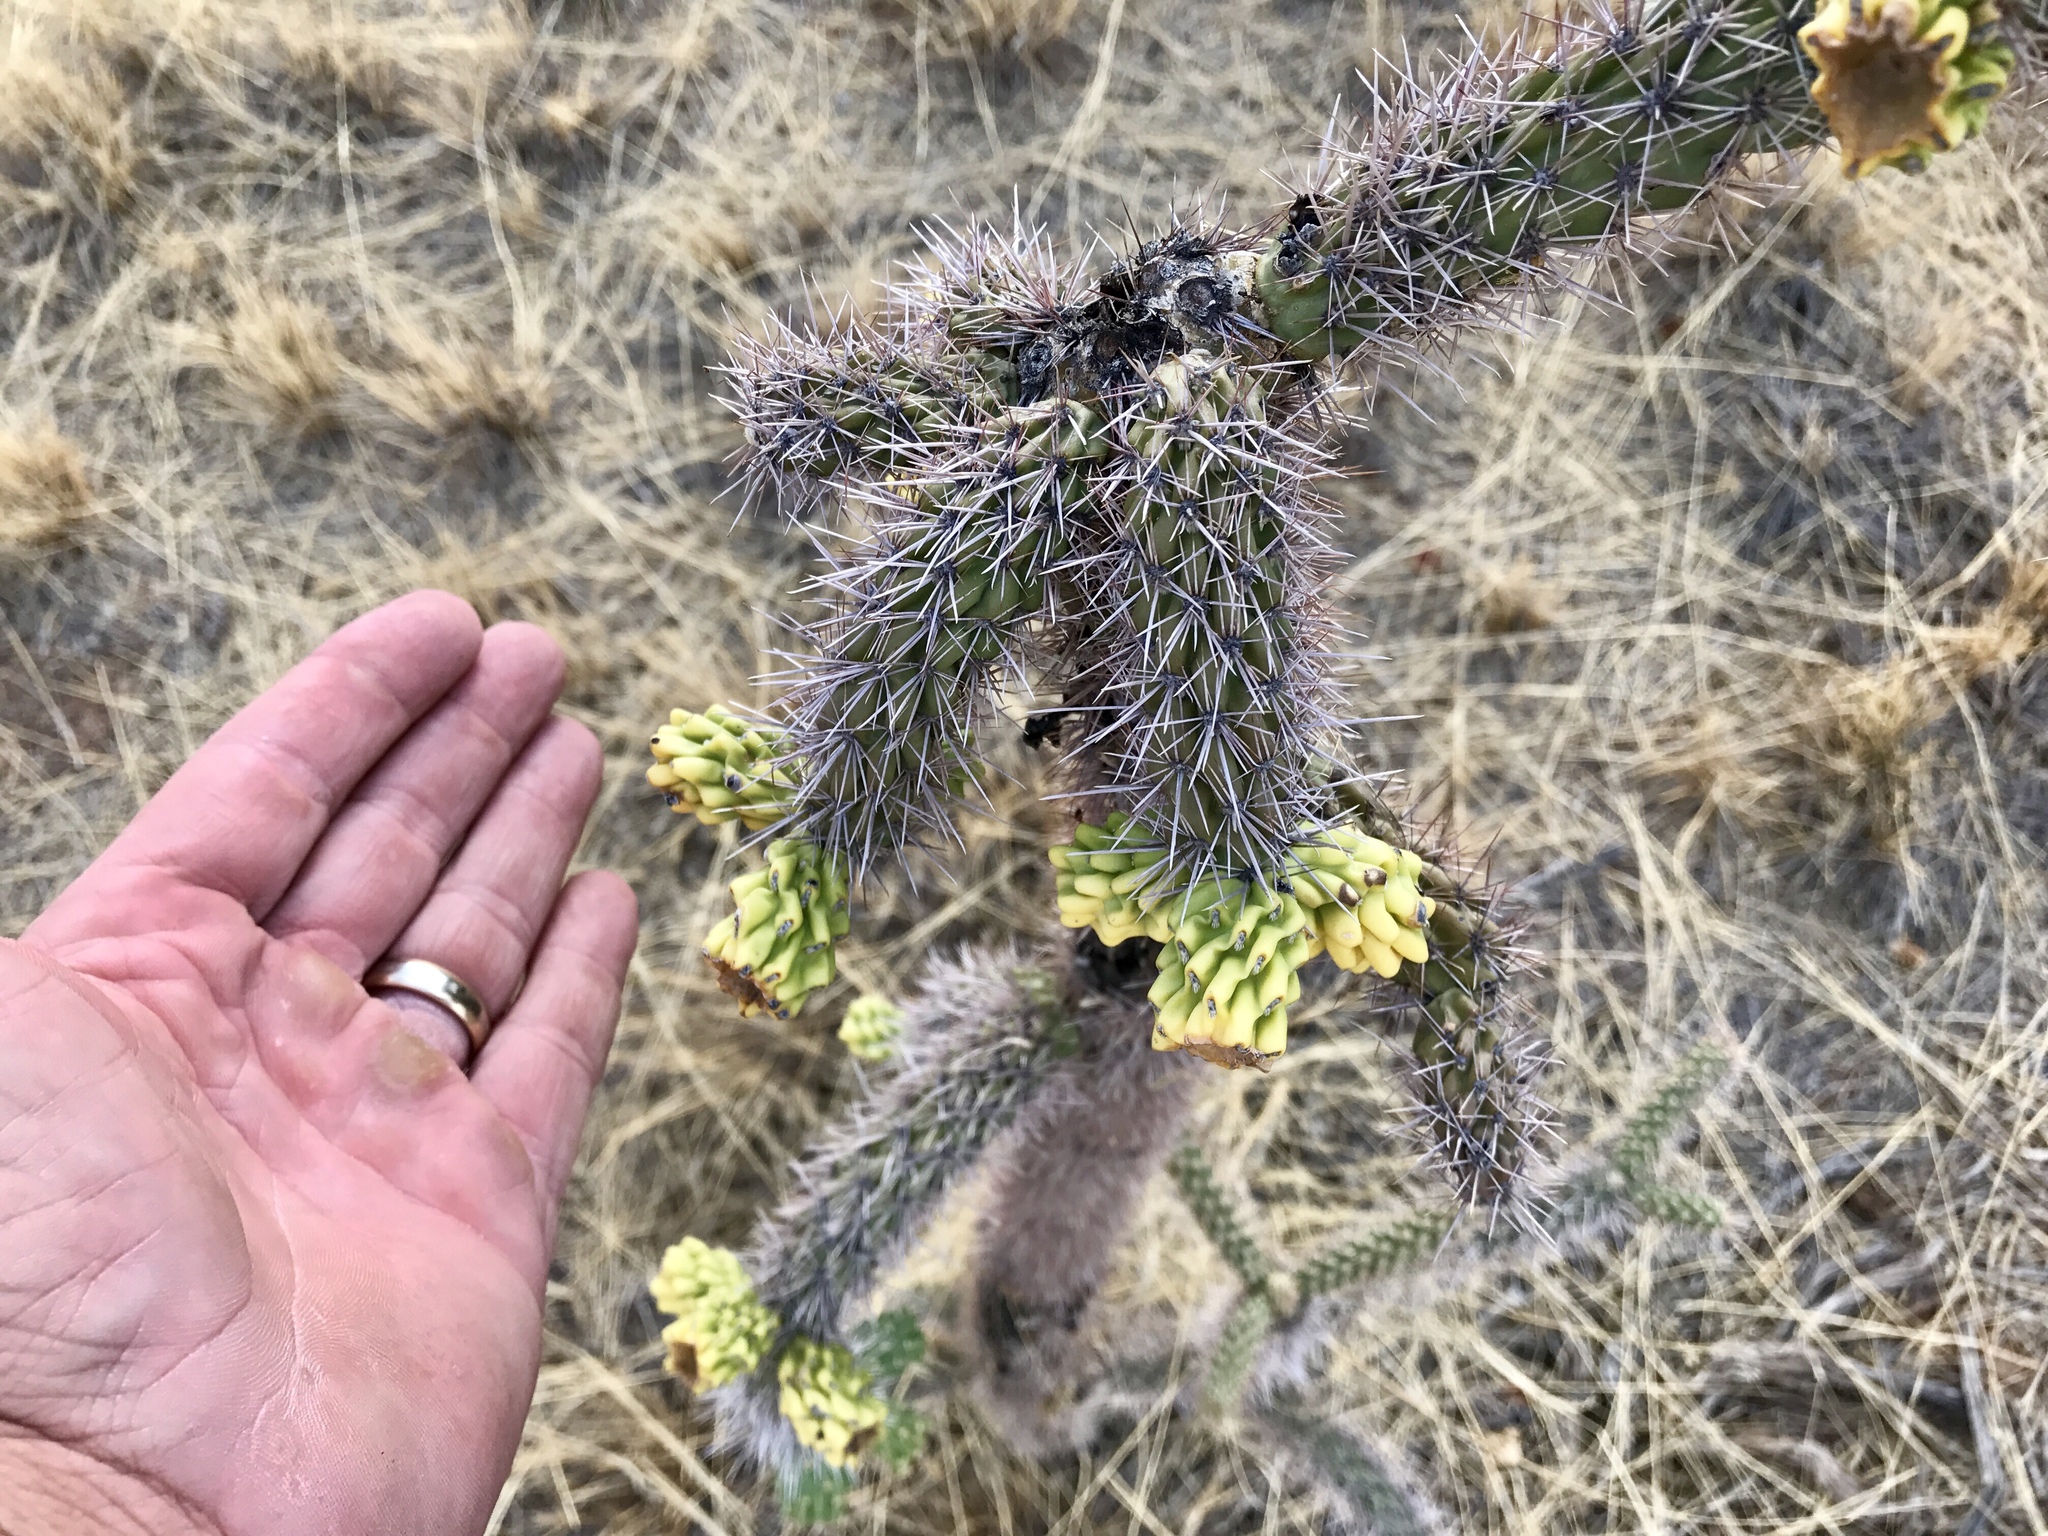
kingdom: Plantae
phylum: Tracheophyta
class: Magnoliopsida
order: Caryophyllales
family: Cactaceae
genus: Cylindropuntia
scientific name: Cylindropuntia imbricata
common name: Candelabrum cactus
